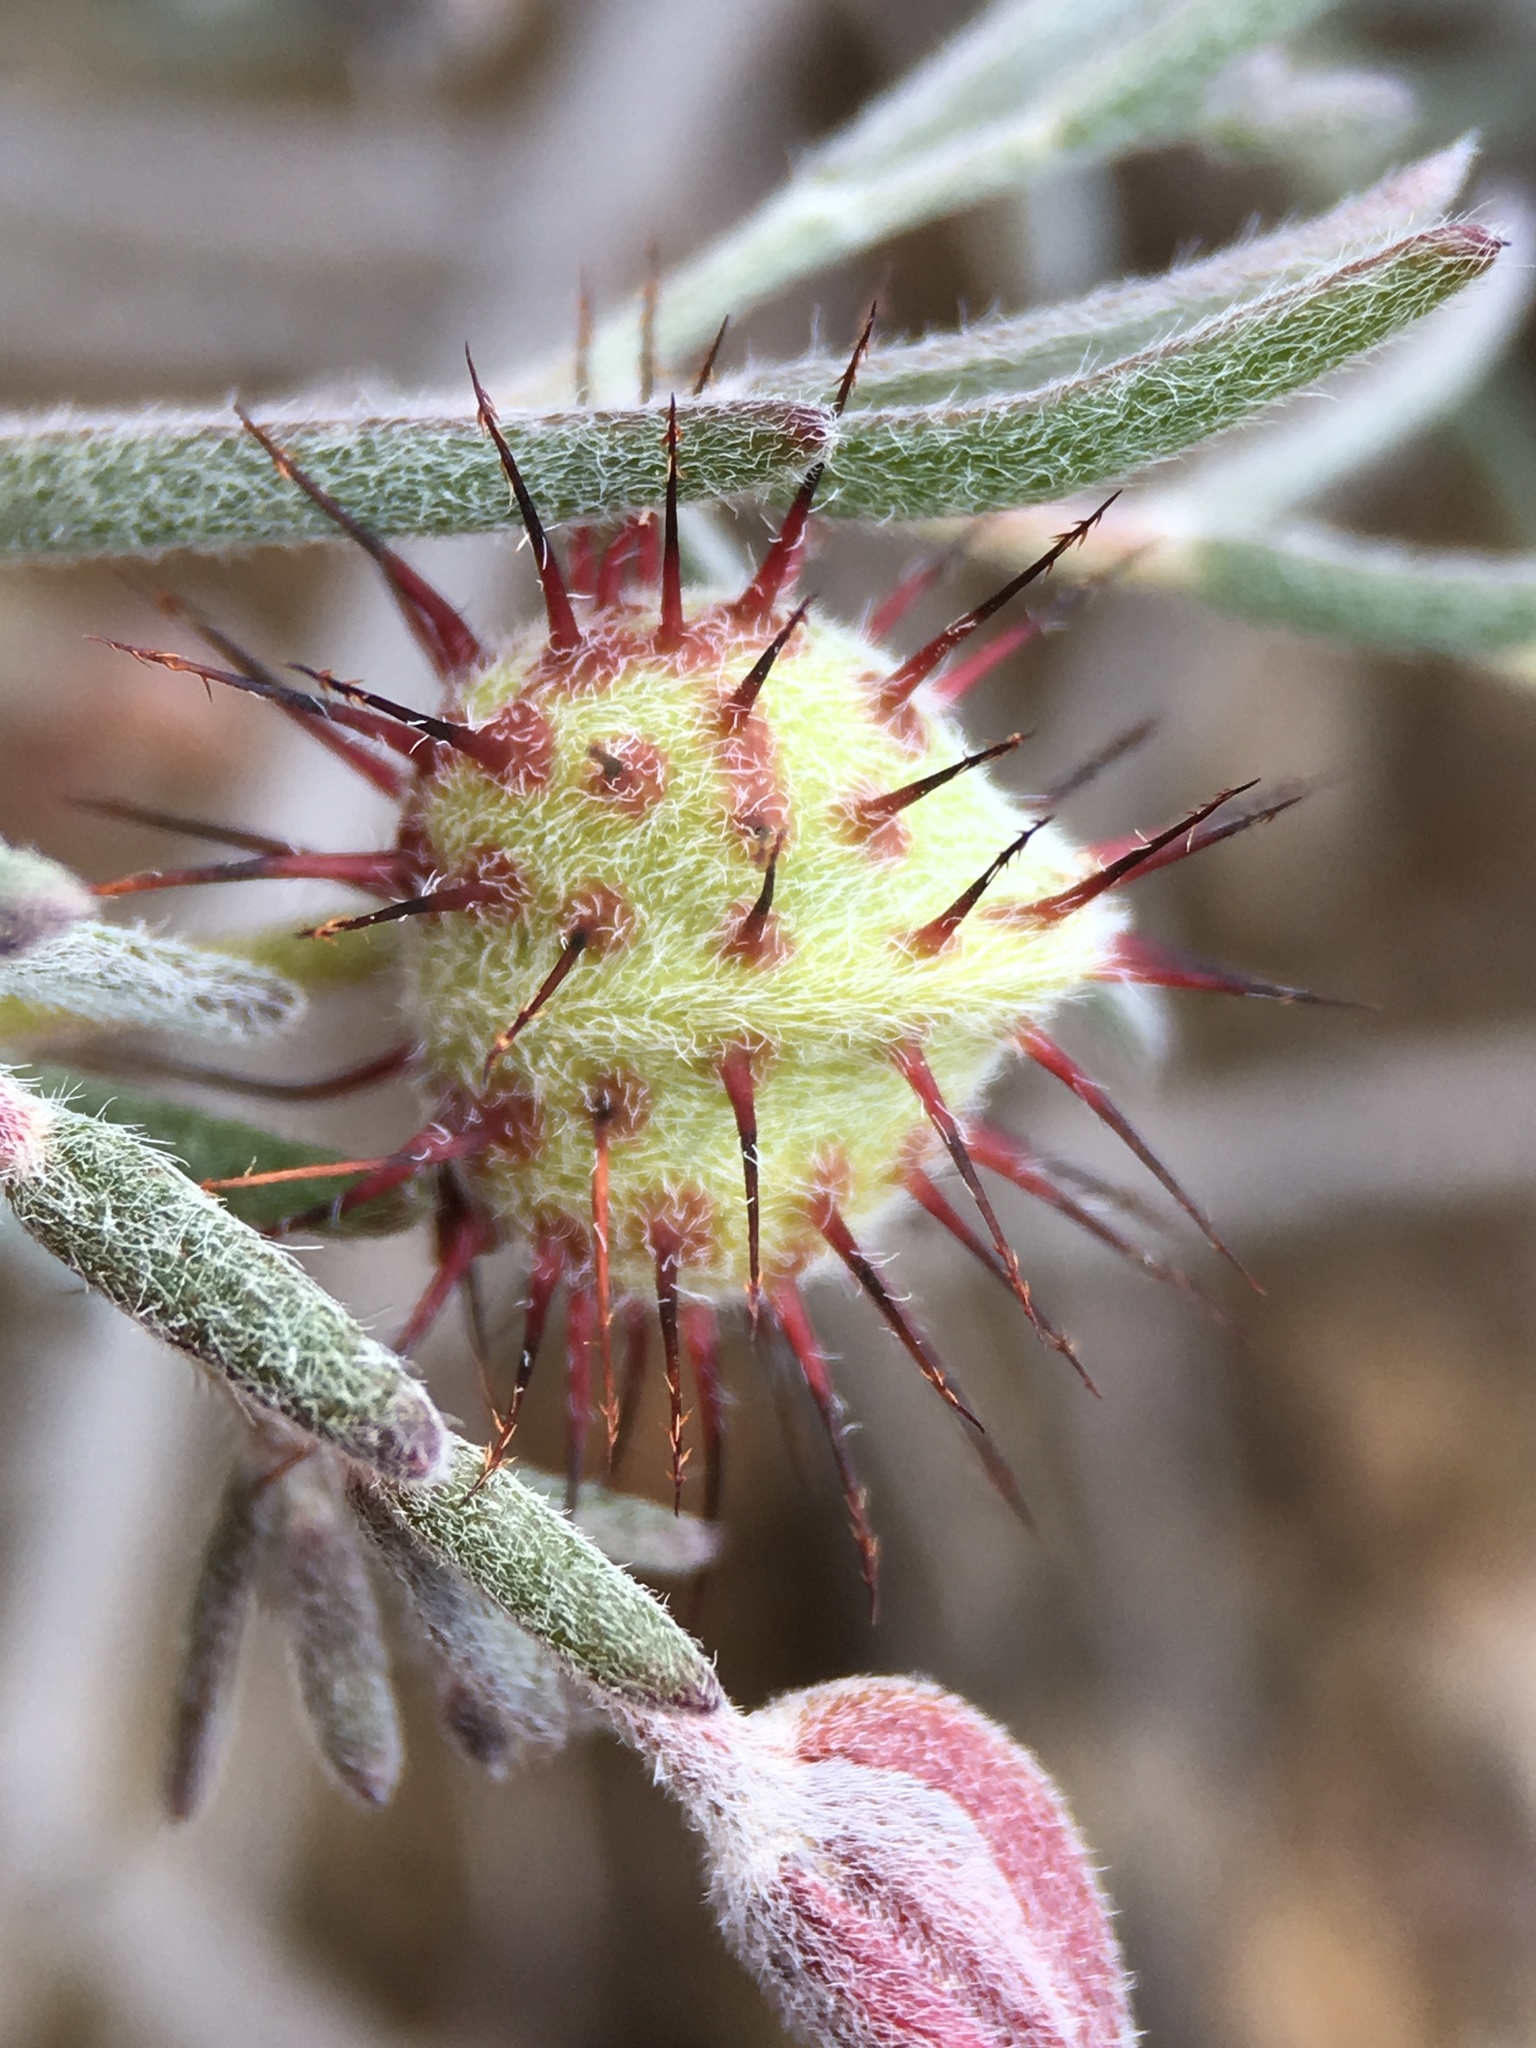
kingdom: Plantae
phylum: Tracheophyta
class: Magnoliopsida
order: Zygophyllales
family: Krameriaceae
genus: Krameria
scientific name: Krameria erecta
